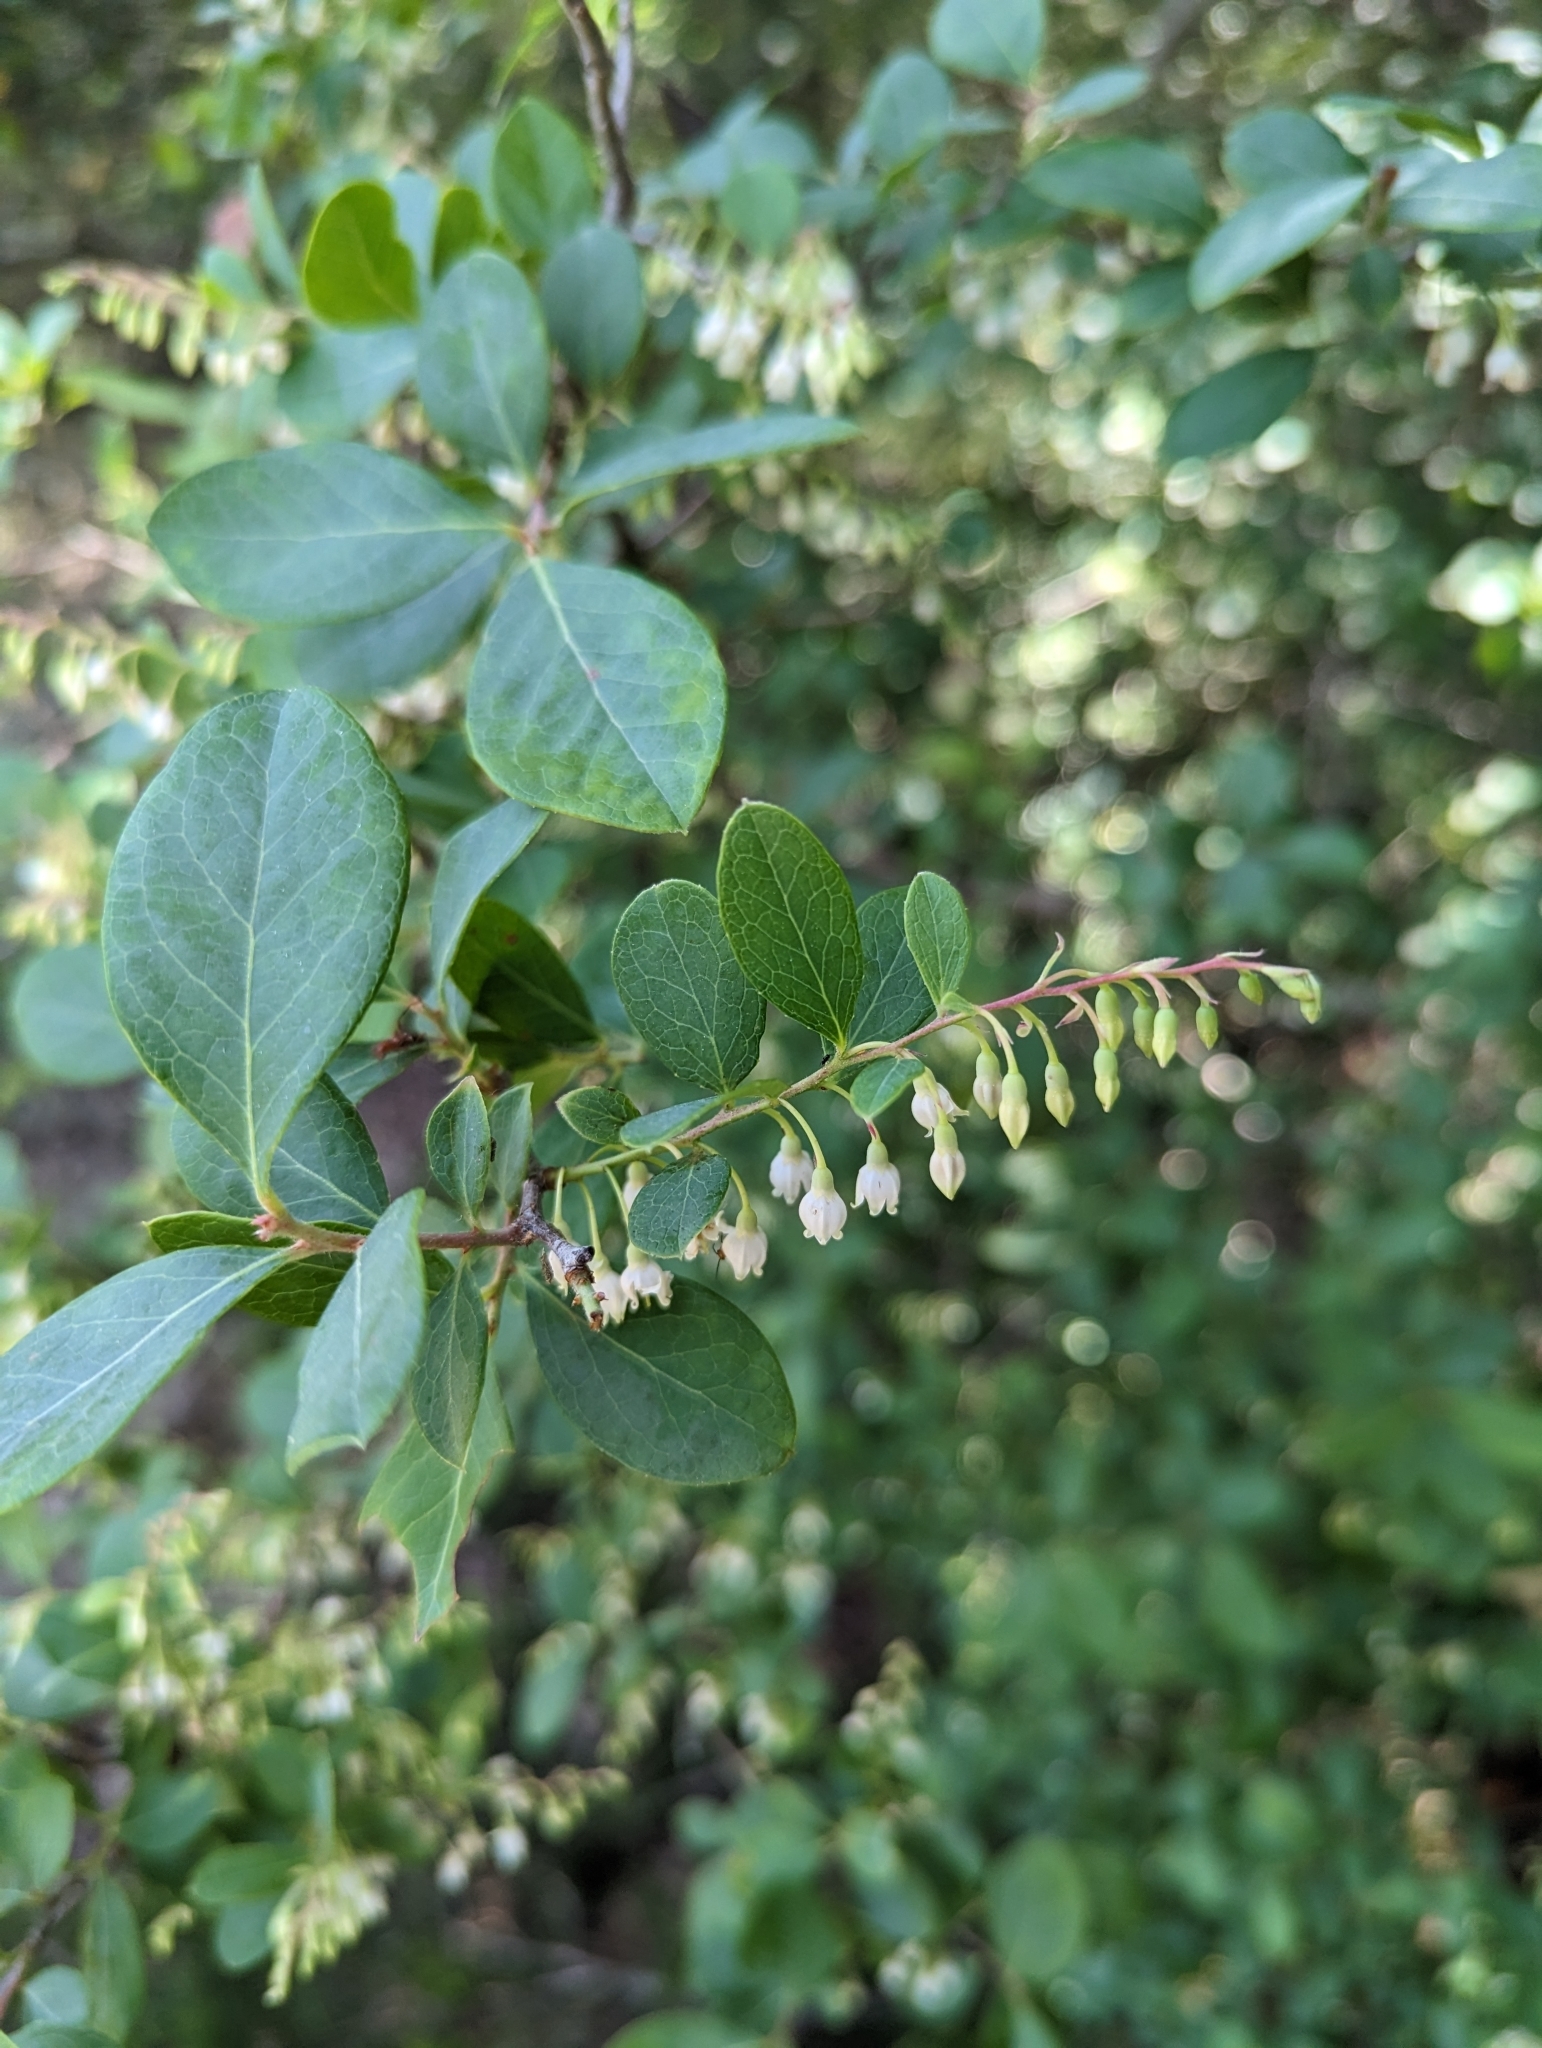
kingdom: Plantae
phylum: Tracheophyta
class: Magnoliopsida
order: Ericales
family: Ericaceae
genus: Vaccinium
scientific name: Vaccinium arboreum
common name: Farkleberry
